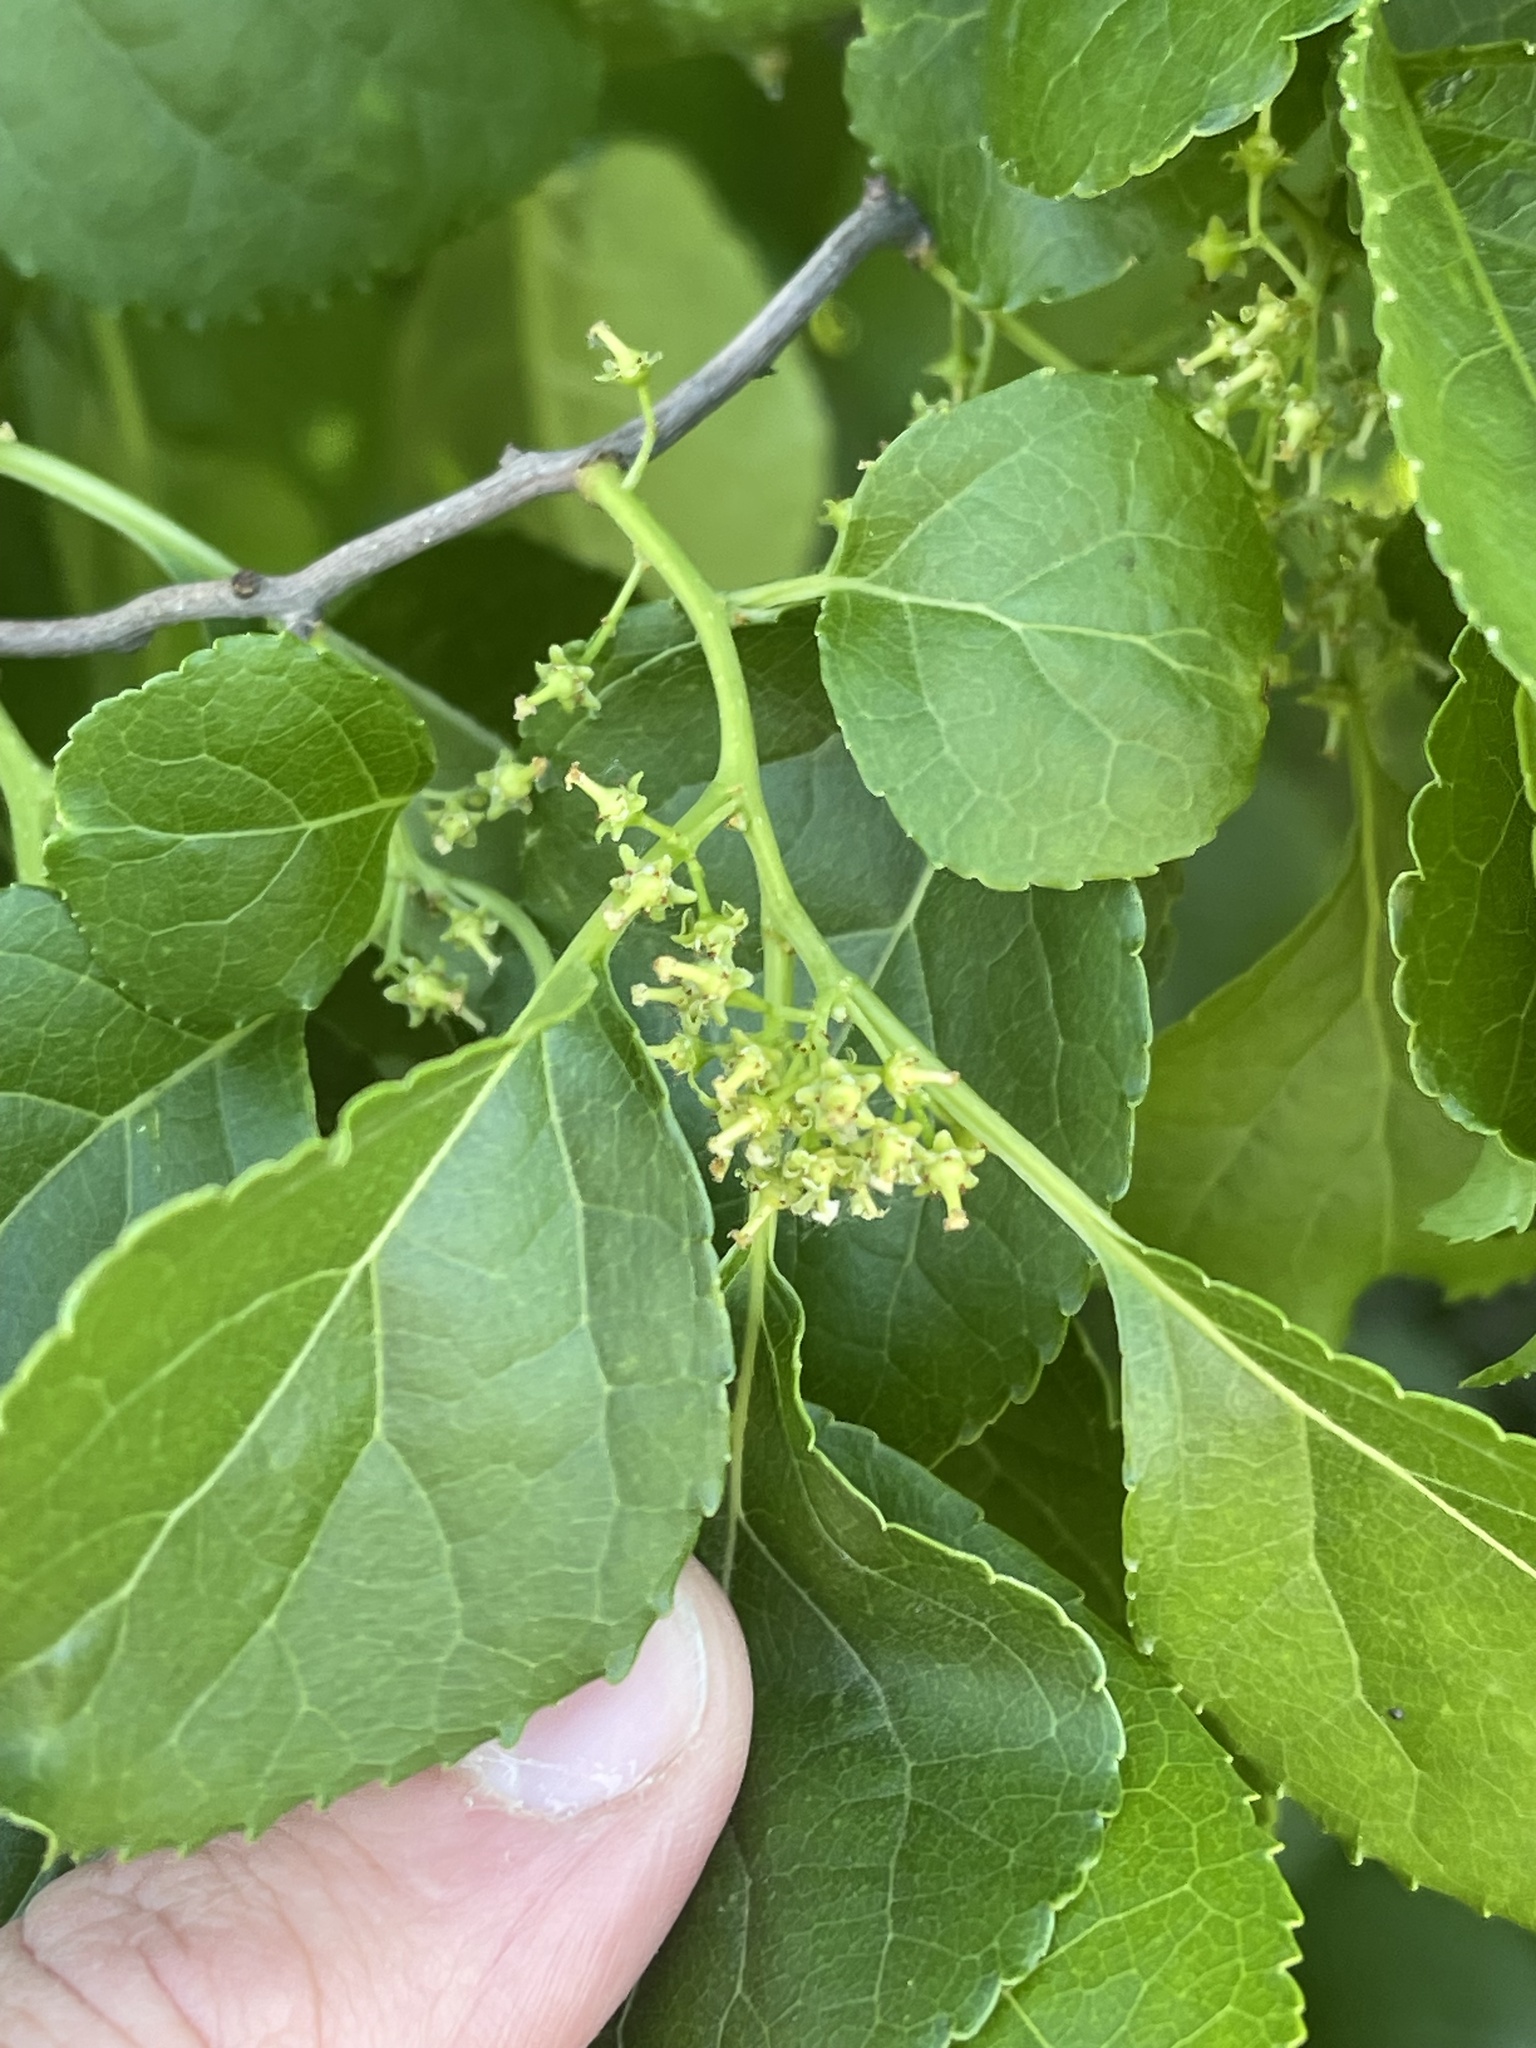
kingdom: Plantae
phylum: Tracheophyta
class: Magnoliopsida
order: Celastrales
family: Celastraceae
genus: Celastrus
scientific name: Celastrus orbiculatus
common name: Oriental bittersweet
